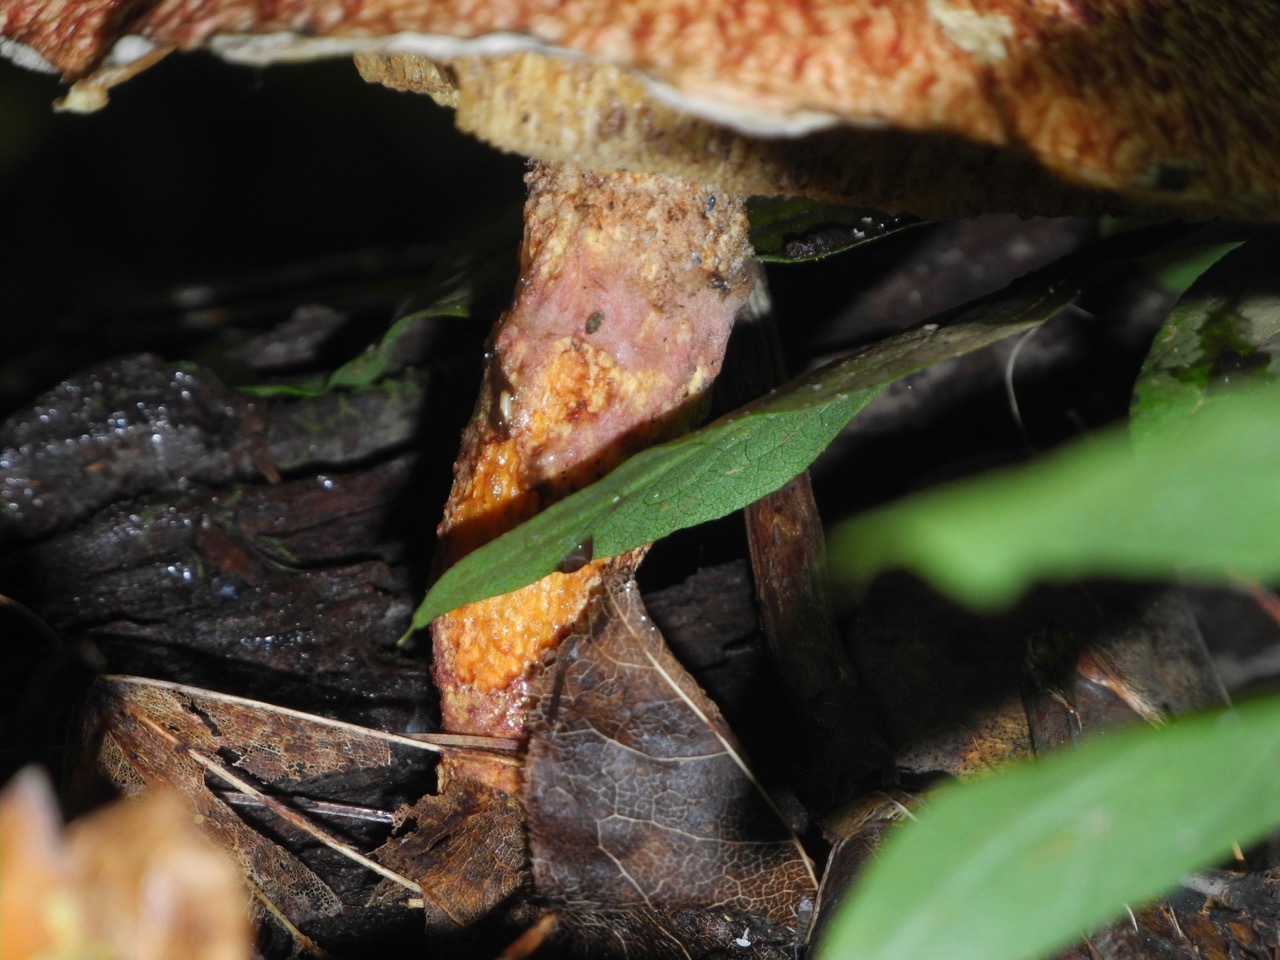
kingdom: Fungi
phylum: Basidiomycota
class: Agaricomycetes
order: Boletales
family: Suillaceae
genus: Suillus
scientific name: Suillus spraguei
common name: Painted suillus
